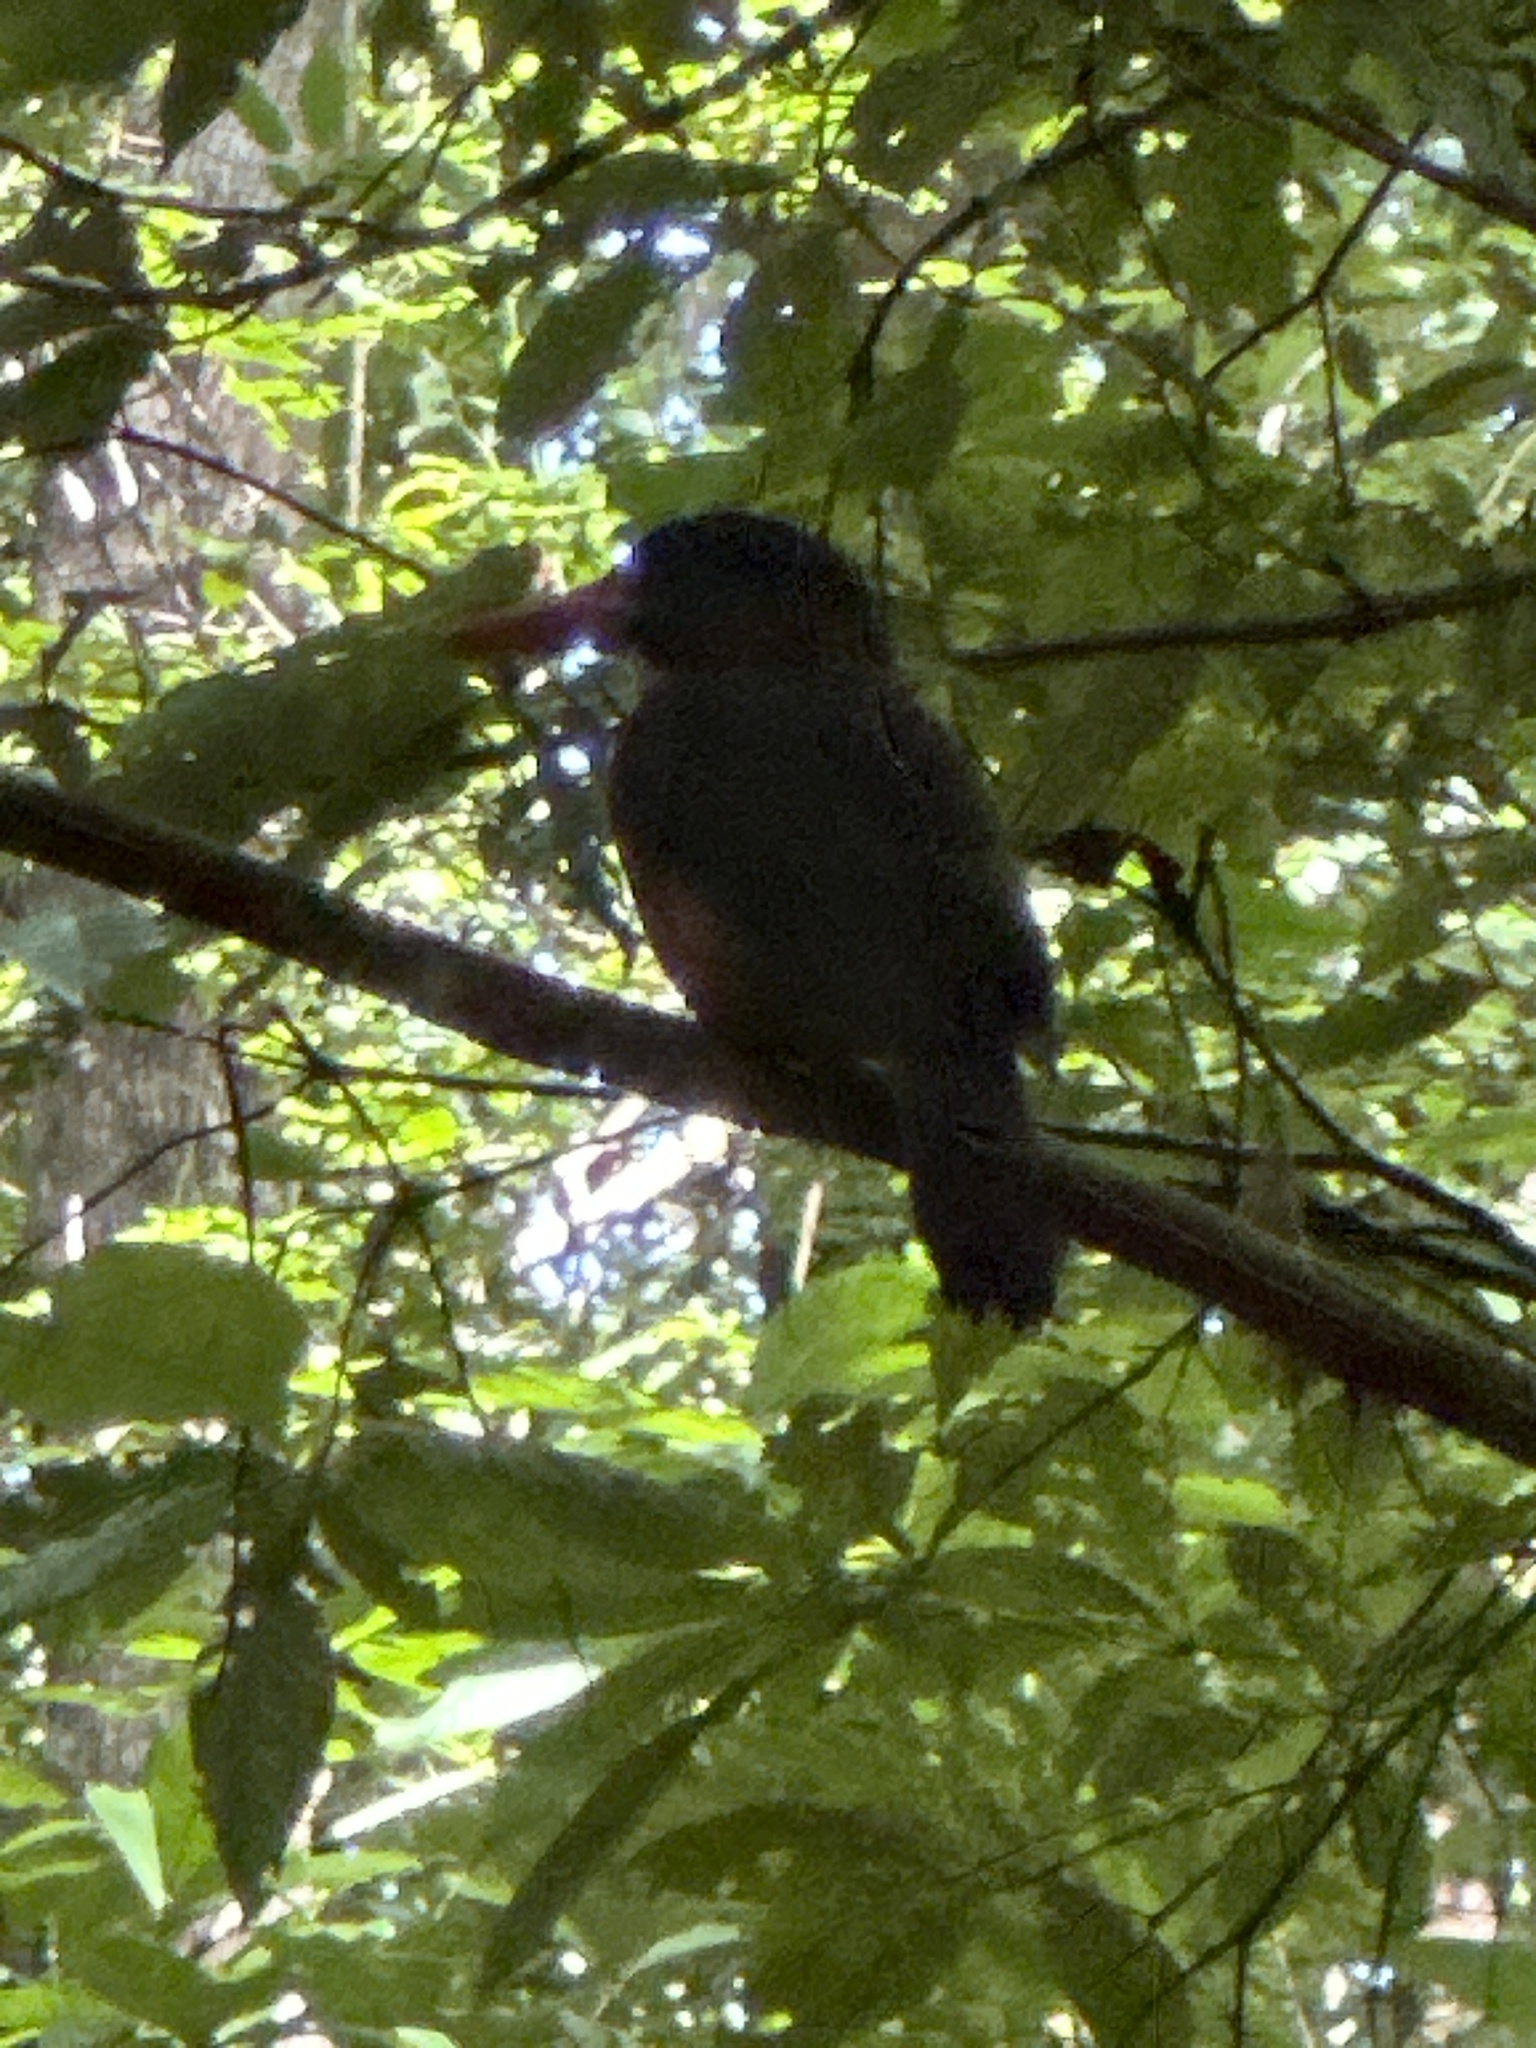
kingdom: Animalia
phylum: Chordata
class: Aves
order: Coraciiformes
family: Alcedinidae
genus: Actenoides
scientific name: Actenoides monachus
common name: Green-backed kingfisher
